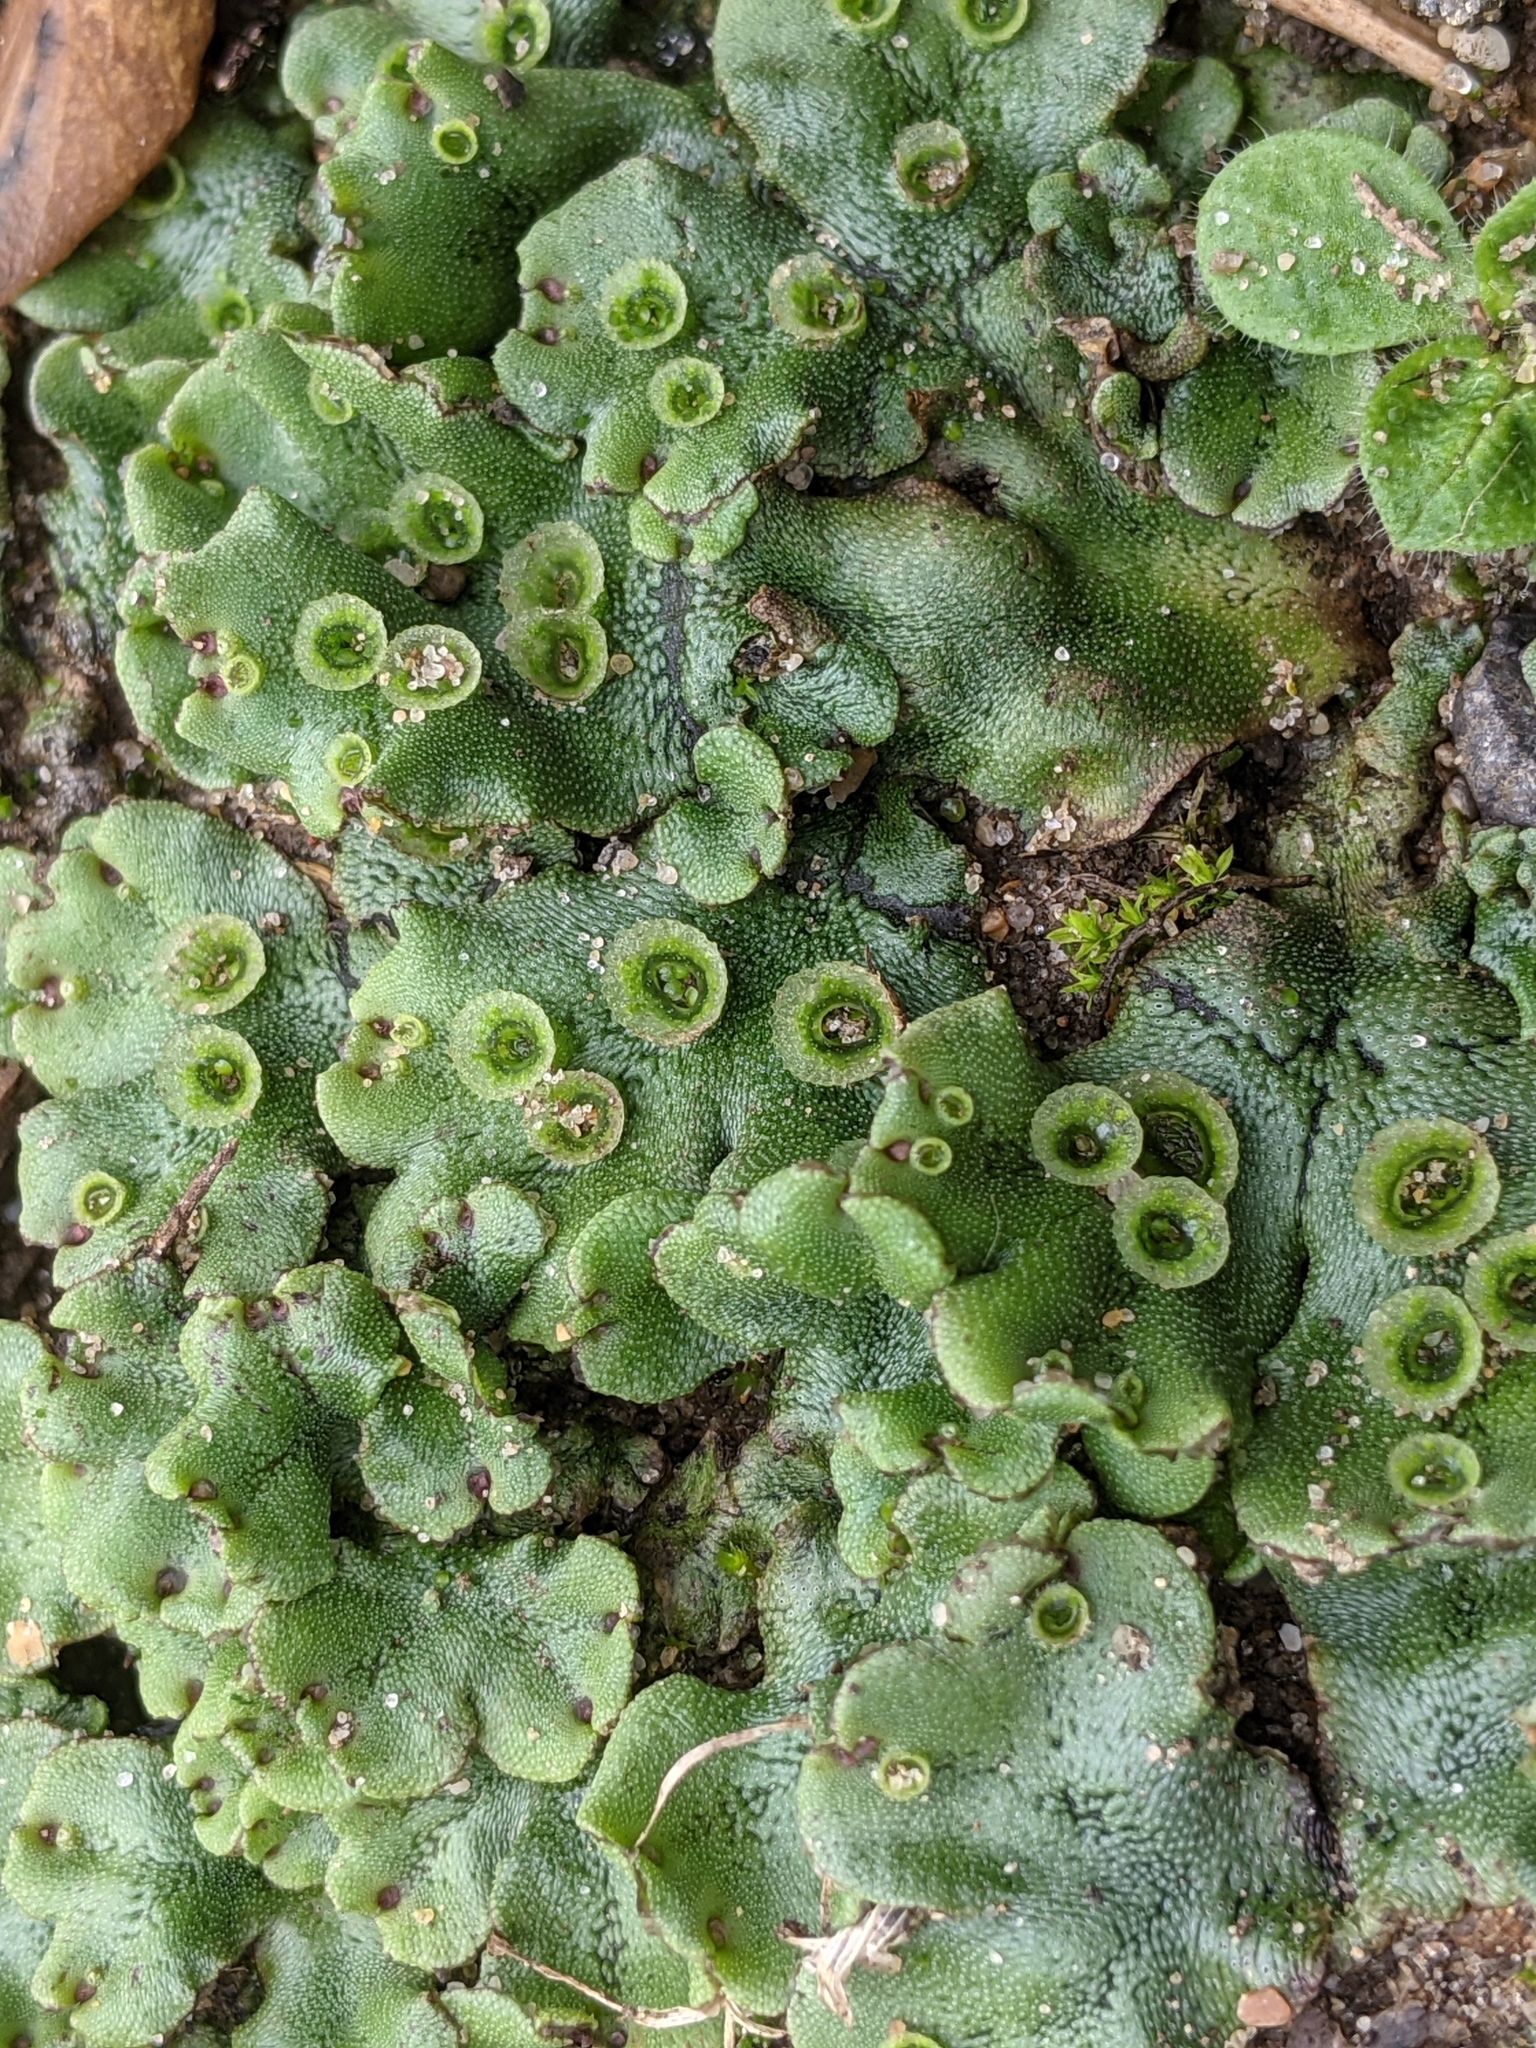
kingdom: Plantae
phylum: Marchantiophyta
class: Marchantiopsida
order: Marchantiales
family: Marchantiaceae
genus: Marchantia
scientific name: Marchantia polymorpha
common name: Common liverwort
